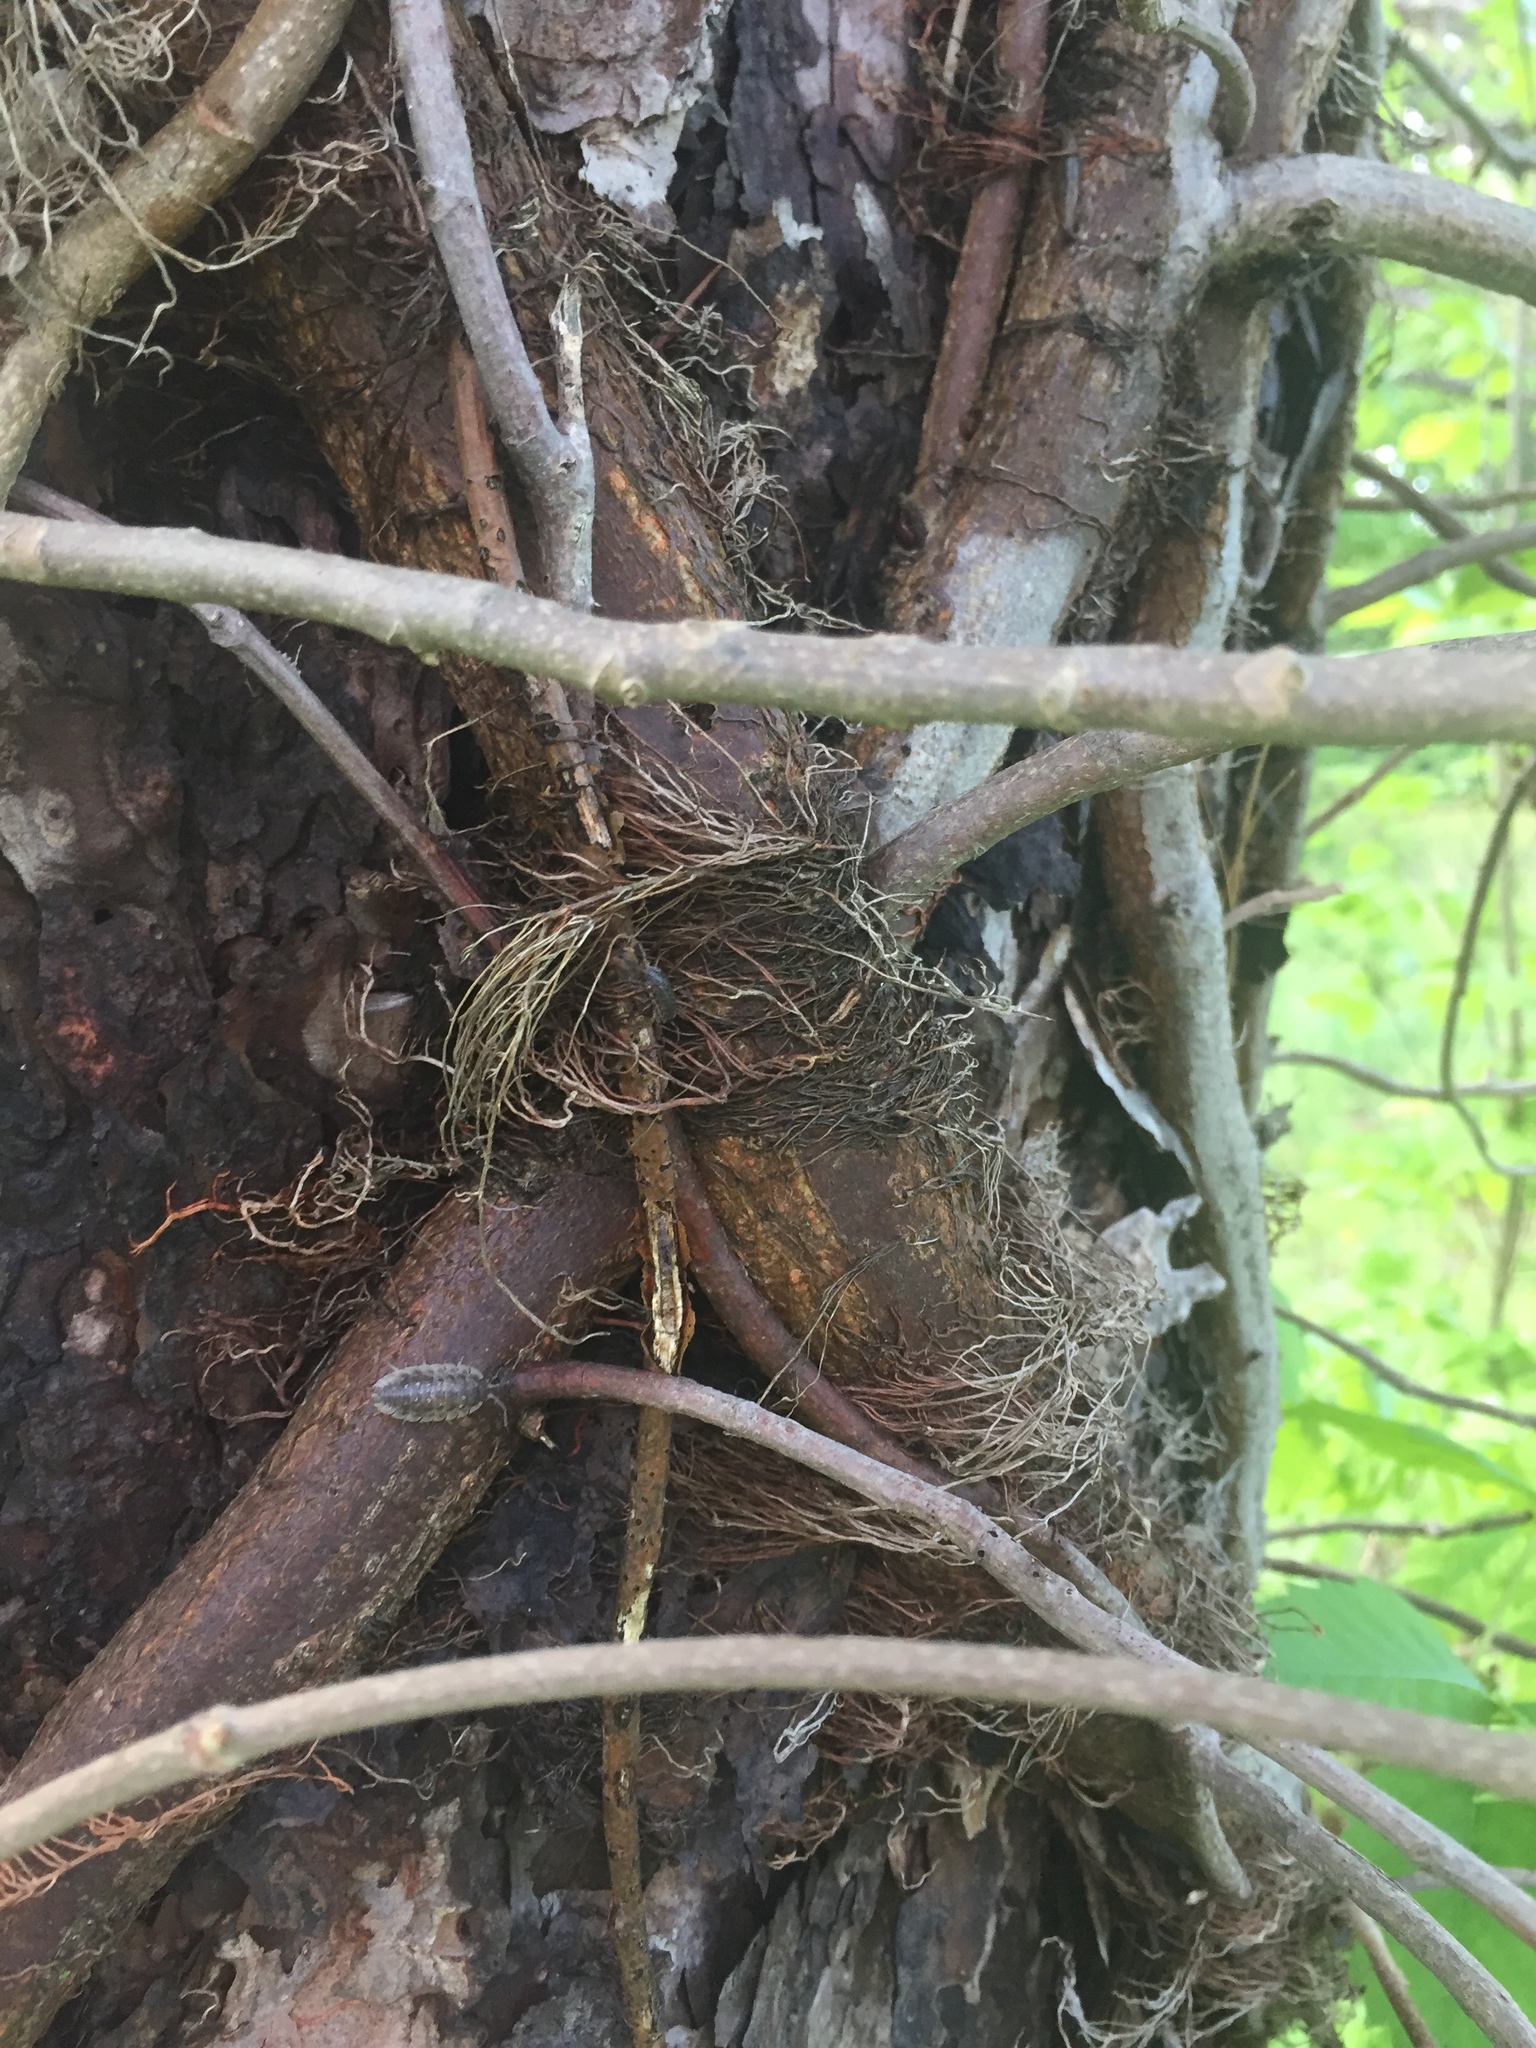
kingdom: Plantae
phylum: Tracheophyta
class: Magnoliopsida
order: Sapindales
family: Anacardiaceae
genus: Toxicodendron
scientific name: Toxicodendron radicans
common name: Poison ivy
